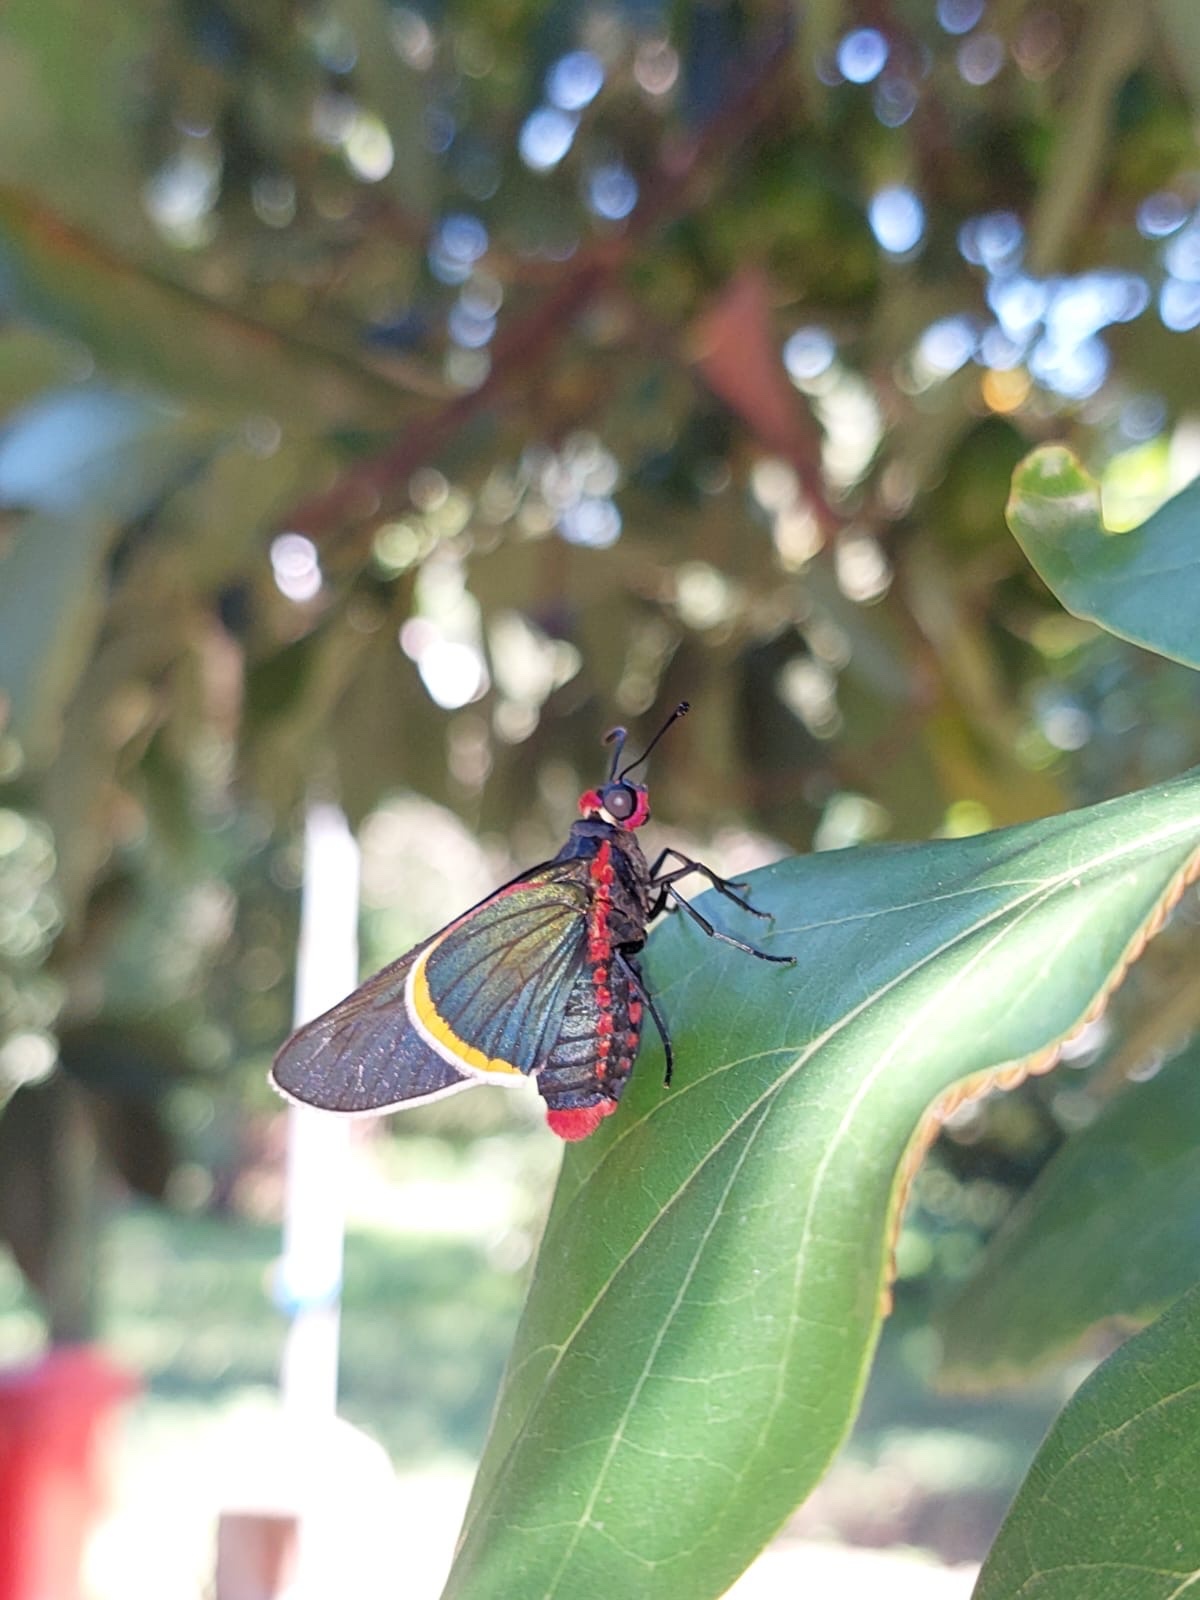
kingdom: Animalia
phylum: Arthropoda
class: Insecta
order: Lepidoptera
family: Hesperiidae
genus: Mysoria
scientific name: Mysoria barcastus
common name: Royal firetip
